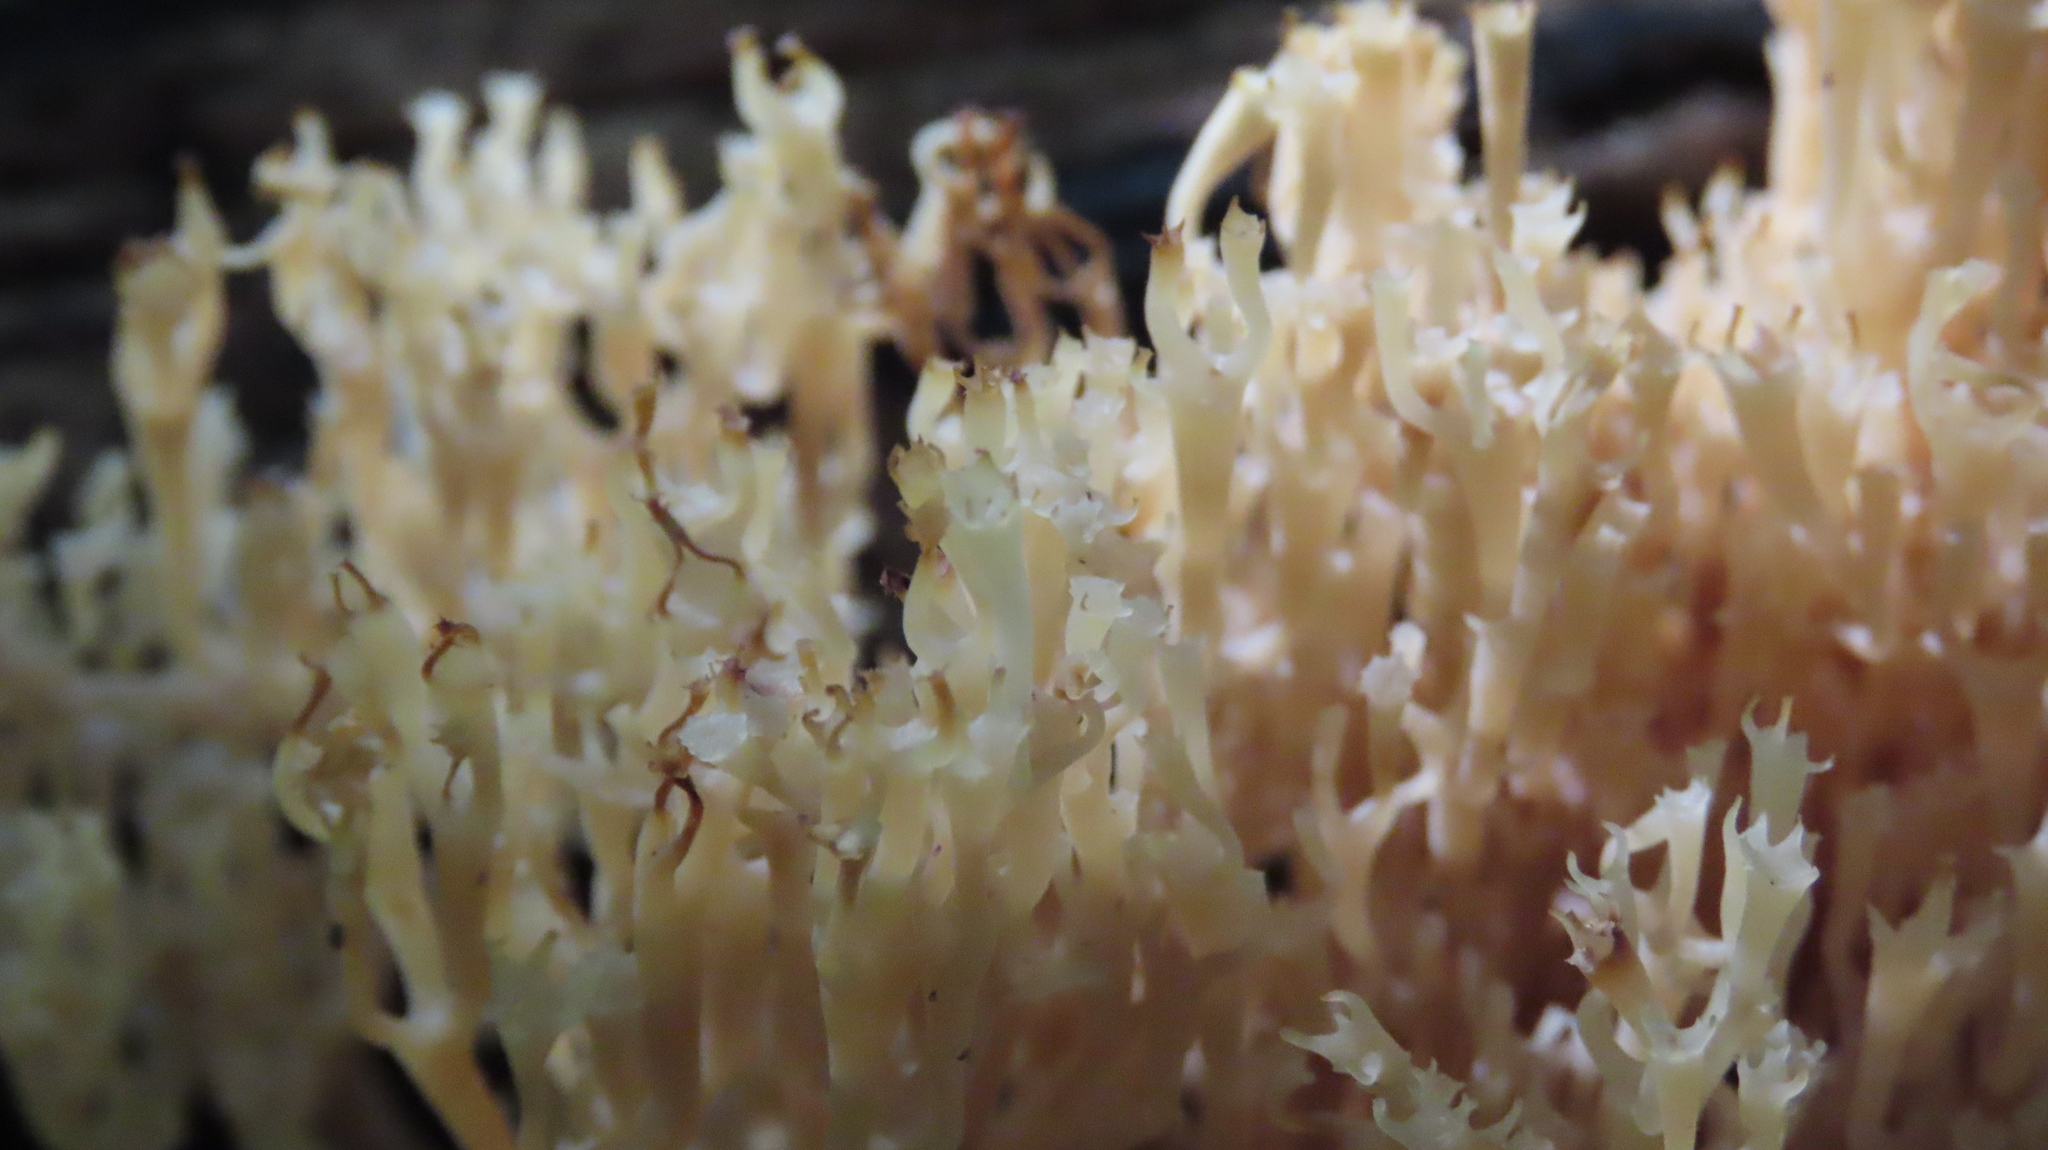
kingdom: Fungi
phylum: Basidiomycota
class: Agaricomycetes
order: Russulales
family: Auriscalpiaceae
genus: Artomyces
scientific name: Artomyces pyxidatus
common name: Crown-tipped coral fungus
